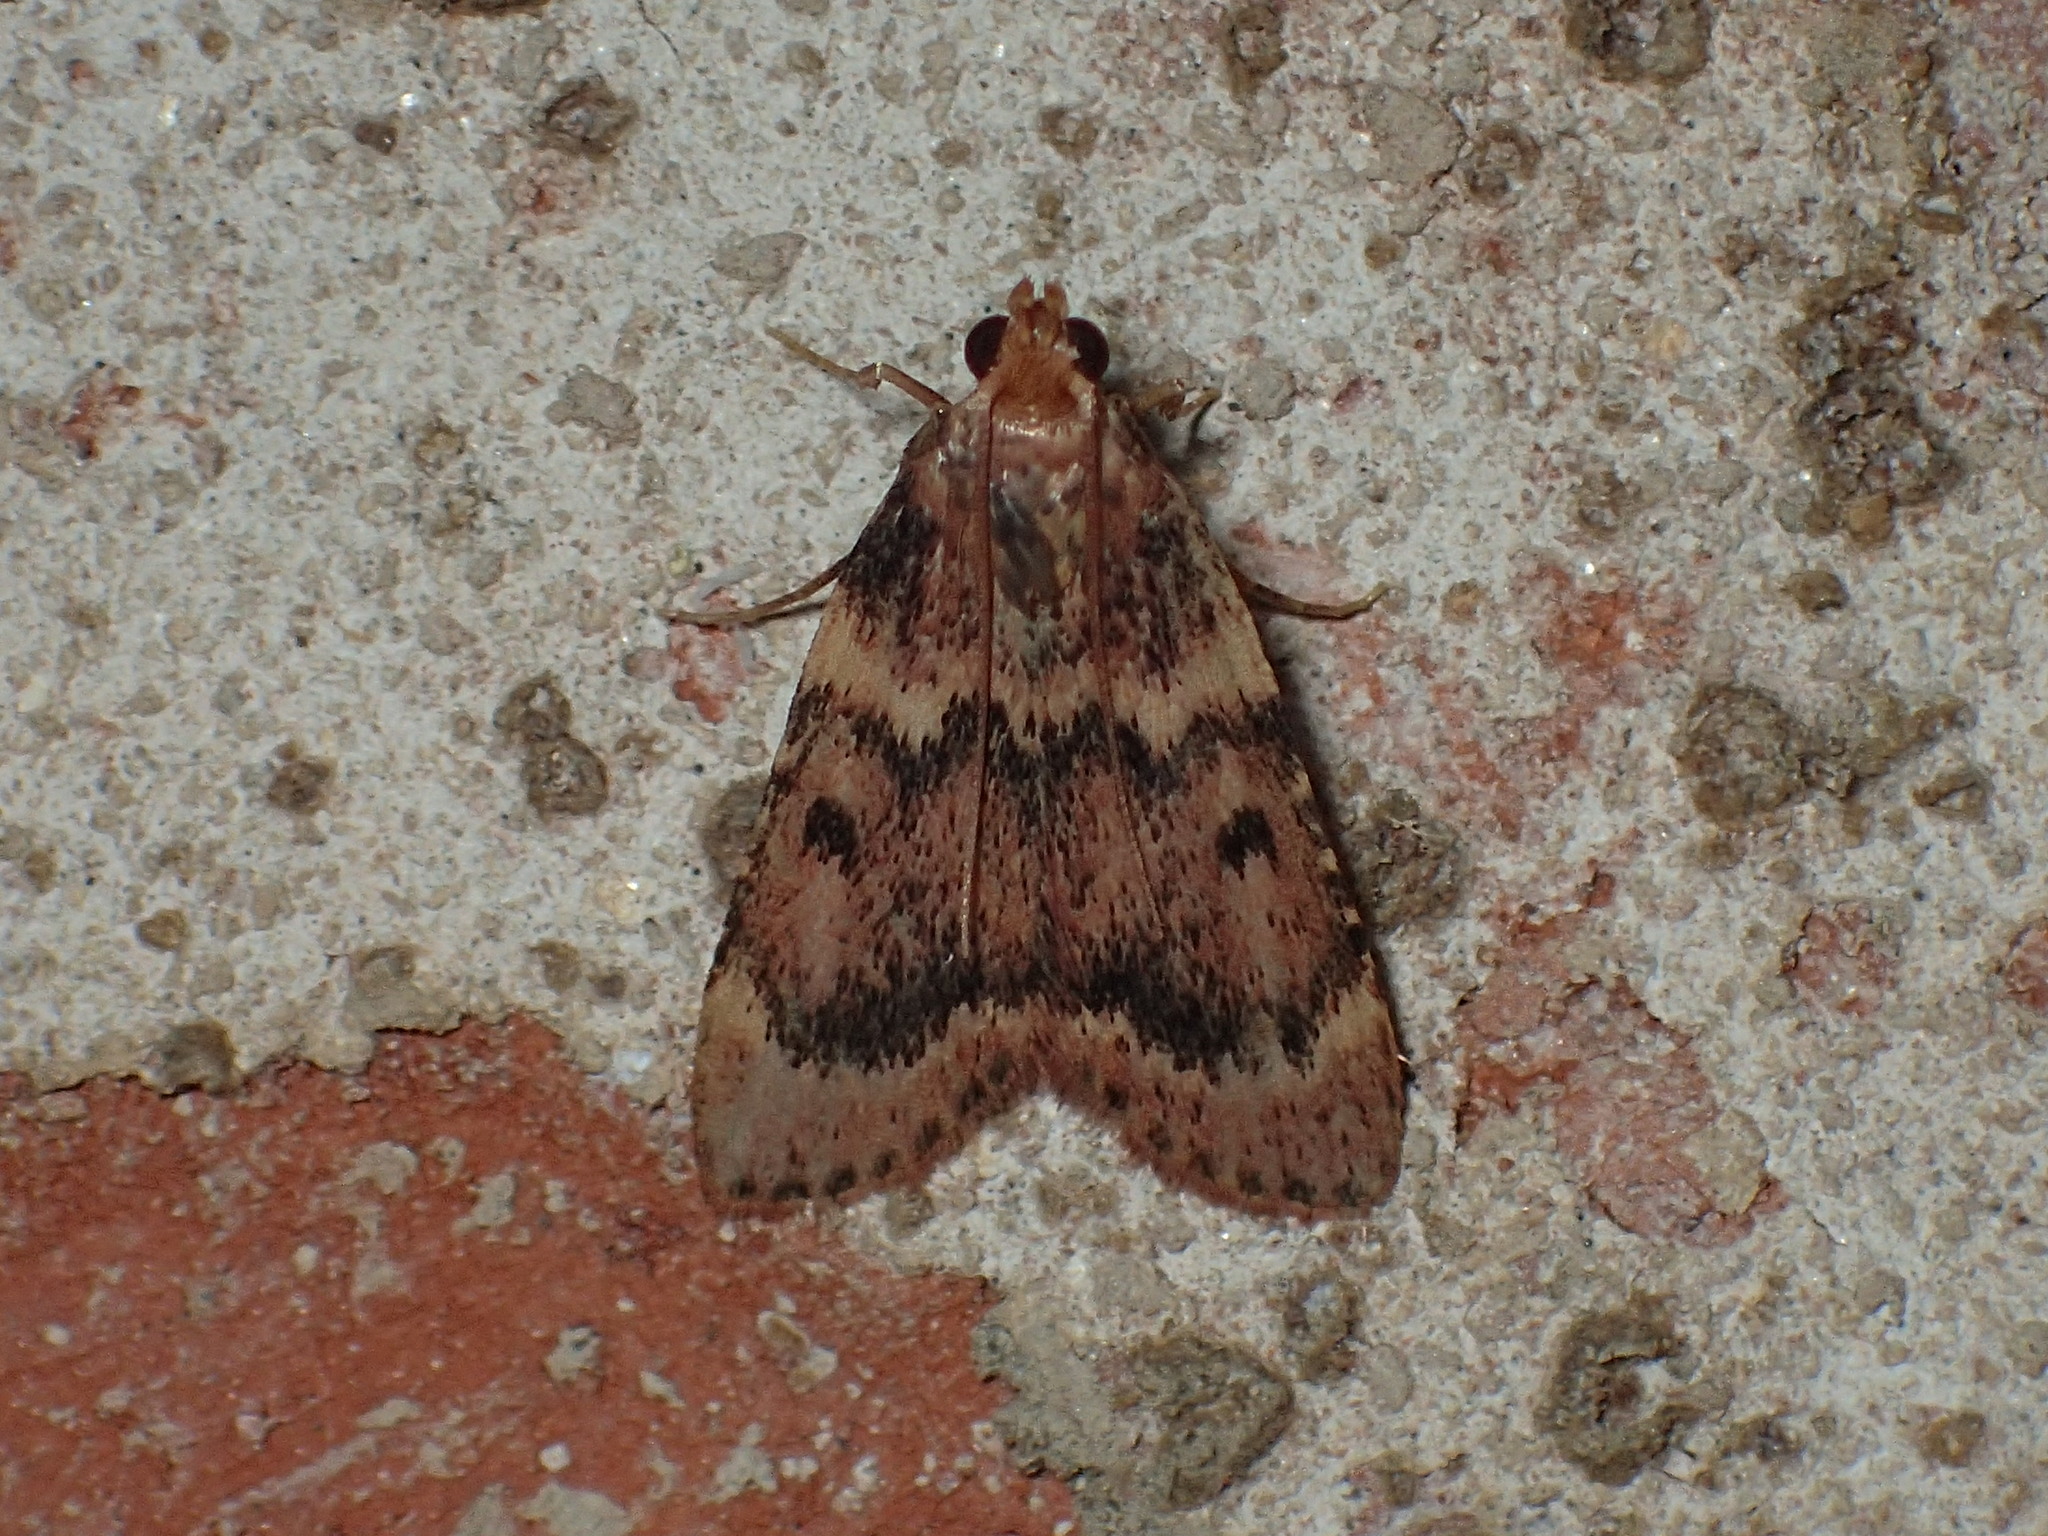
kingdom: Animalia
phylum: Arthropoda
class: Insecta
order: Lepidoptera
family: Pyralidae
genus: Aglossa
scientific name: Aglossa disciferalis
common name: Pink-masked pyralid moth
